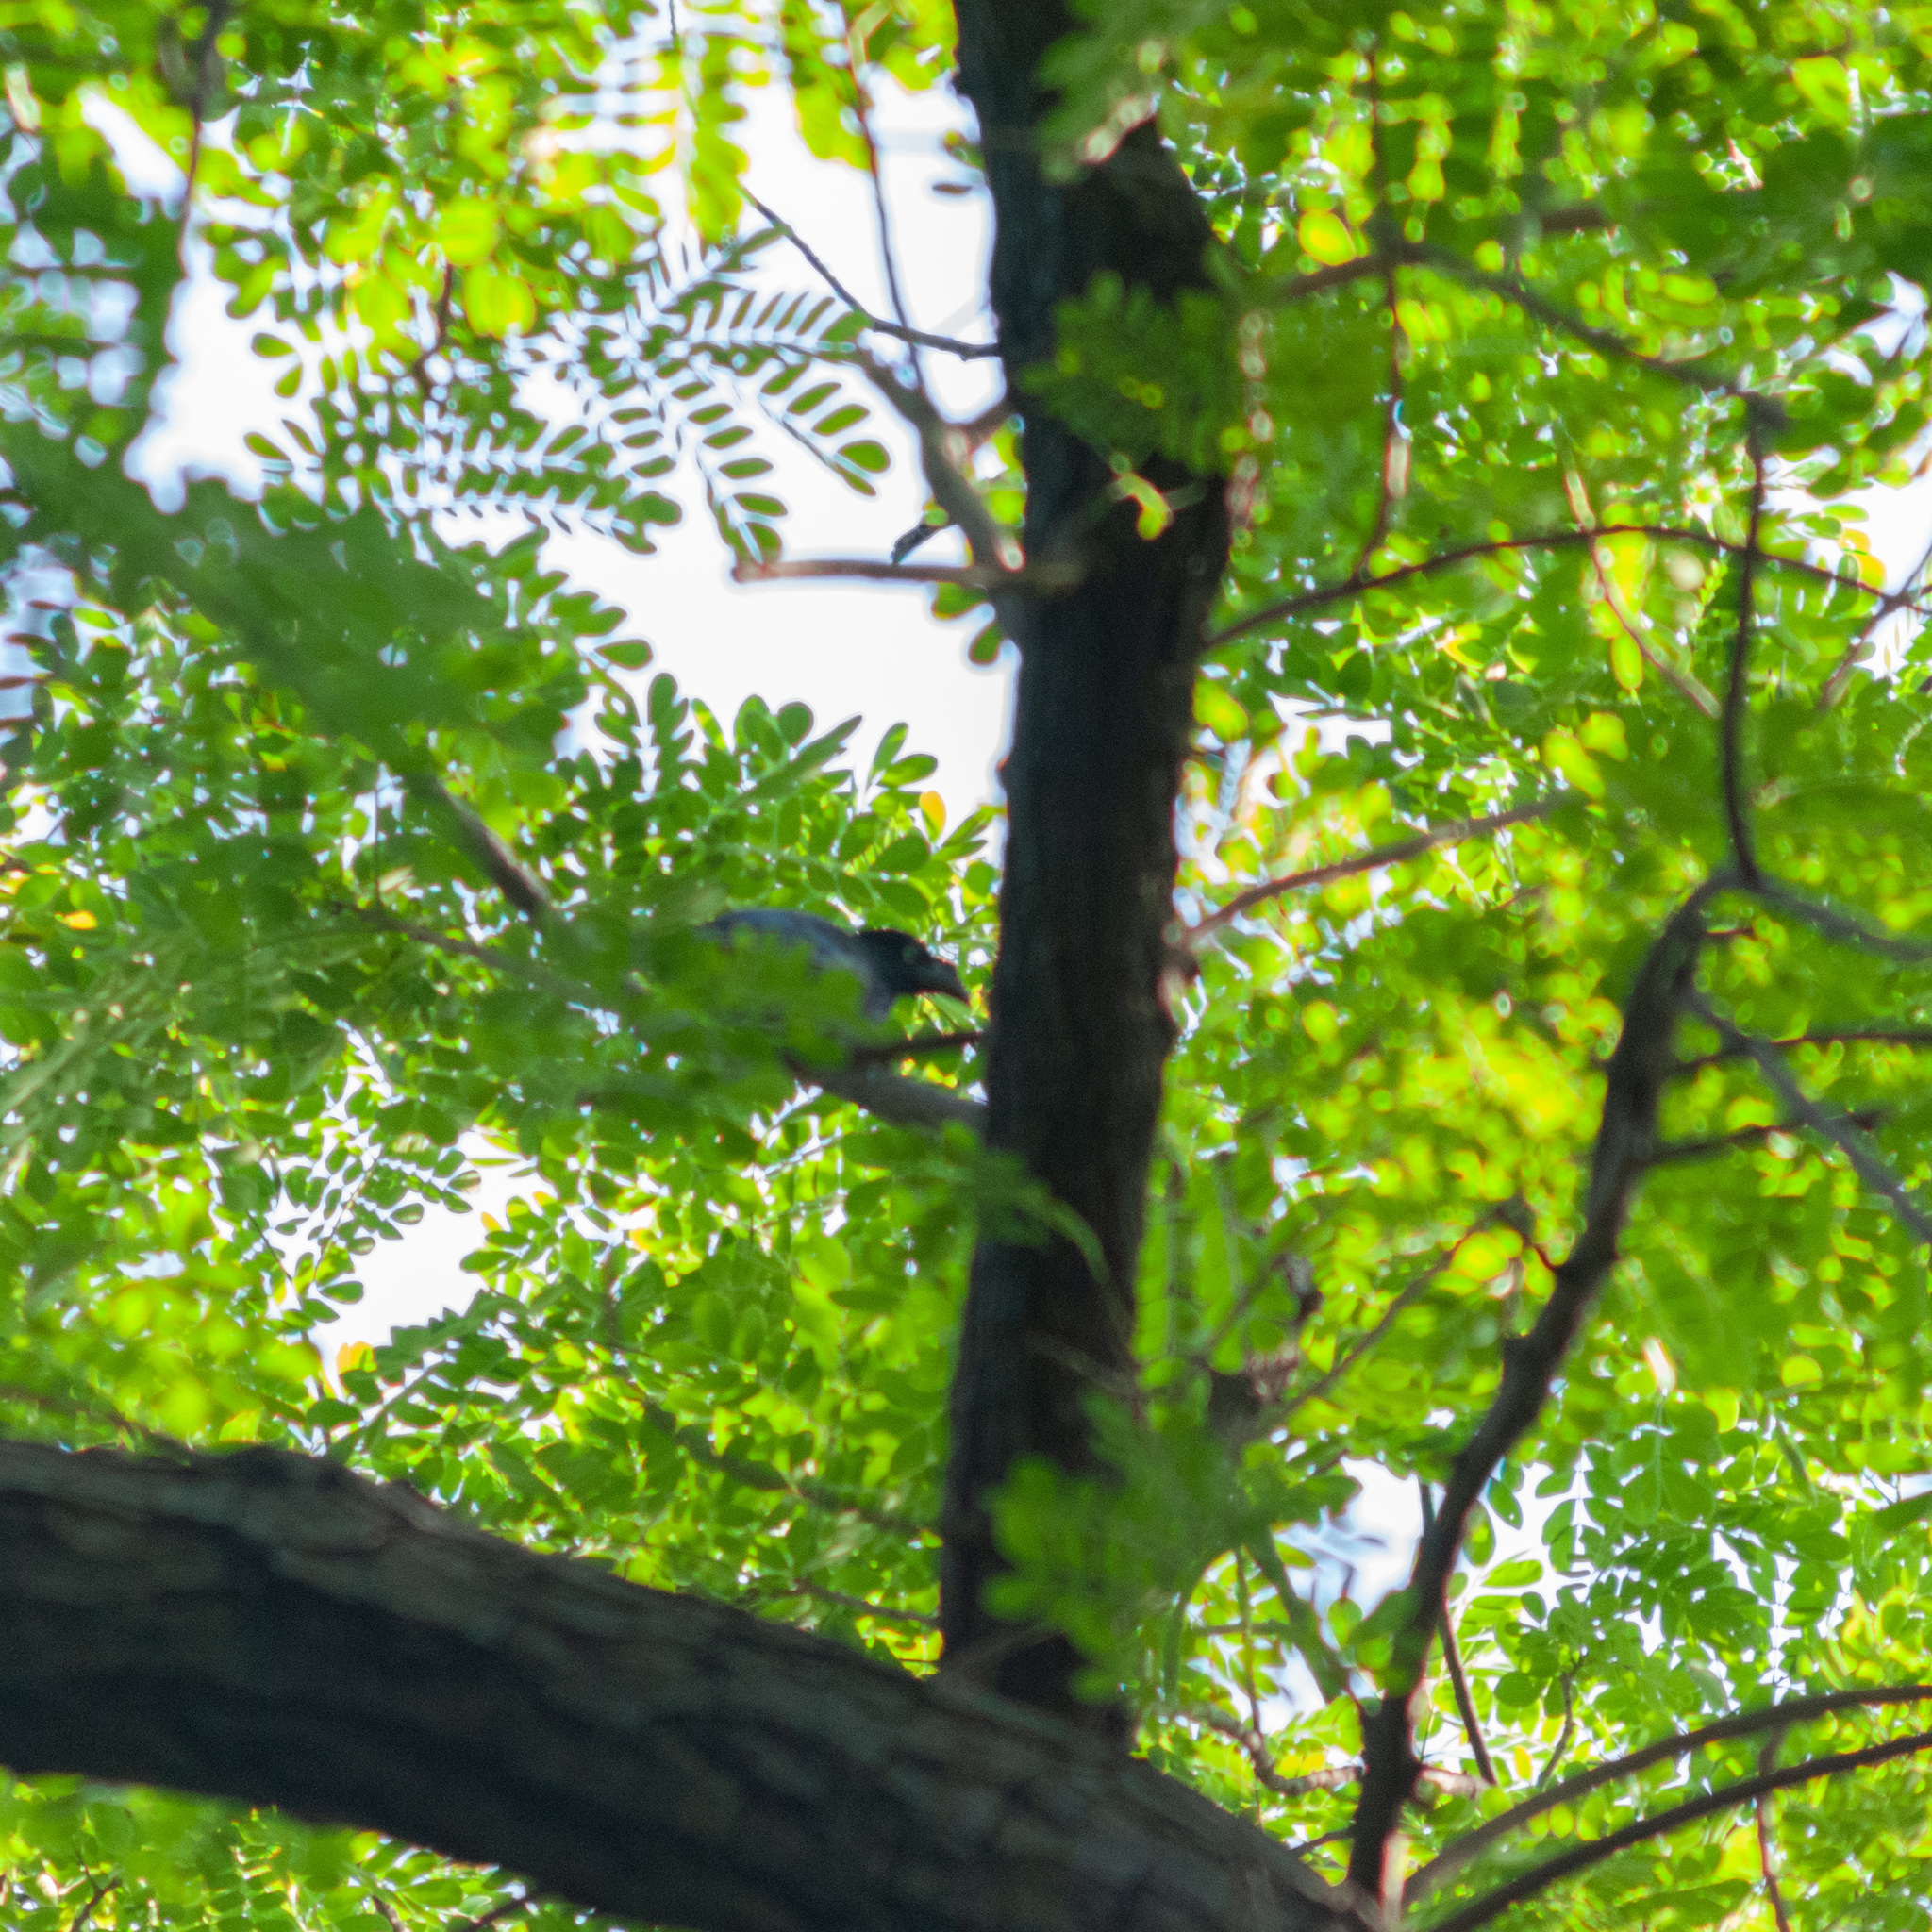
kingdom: Animalia
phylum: Chordata
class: Aves
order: Cuculiformes
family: Cuculidae
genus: Crotophaga
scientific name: Crotophaga major
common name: Greater ani
